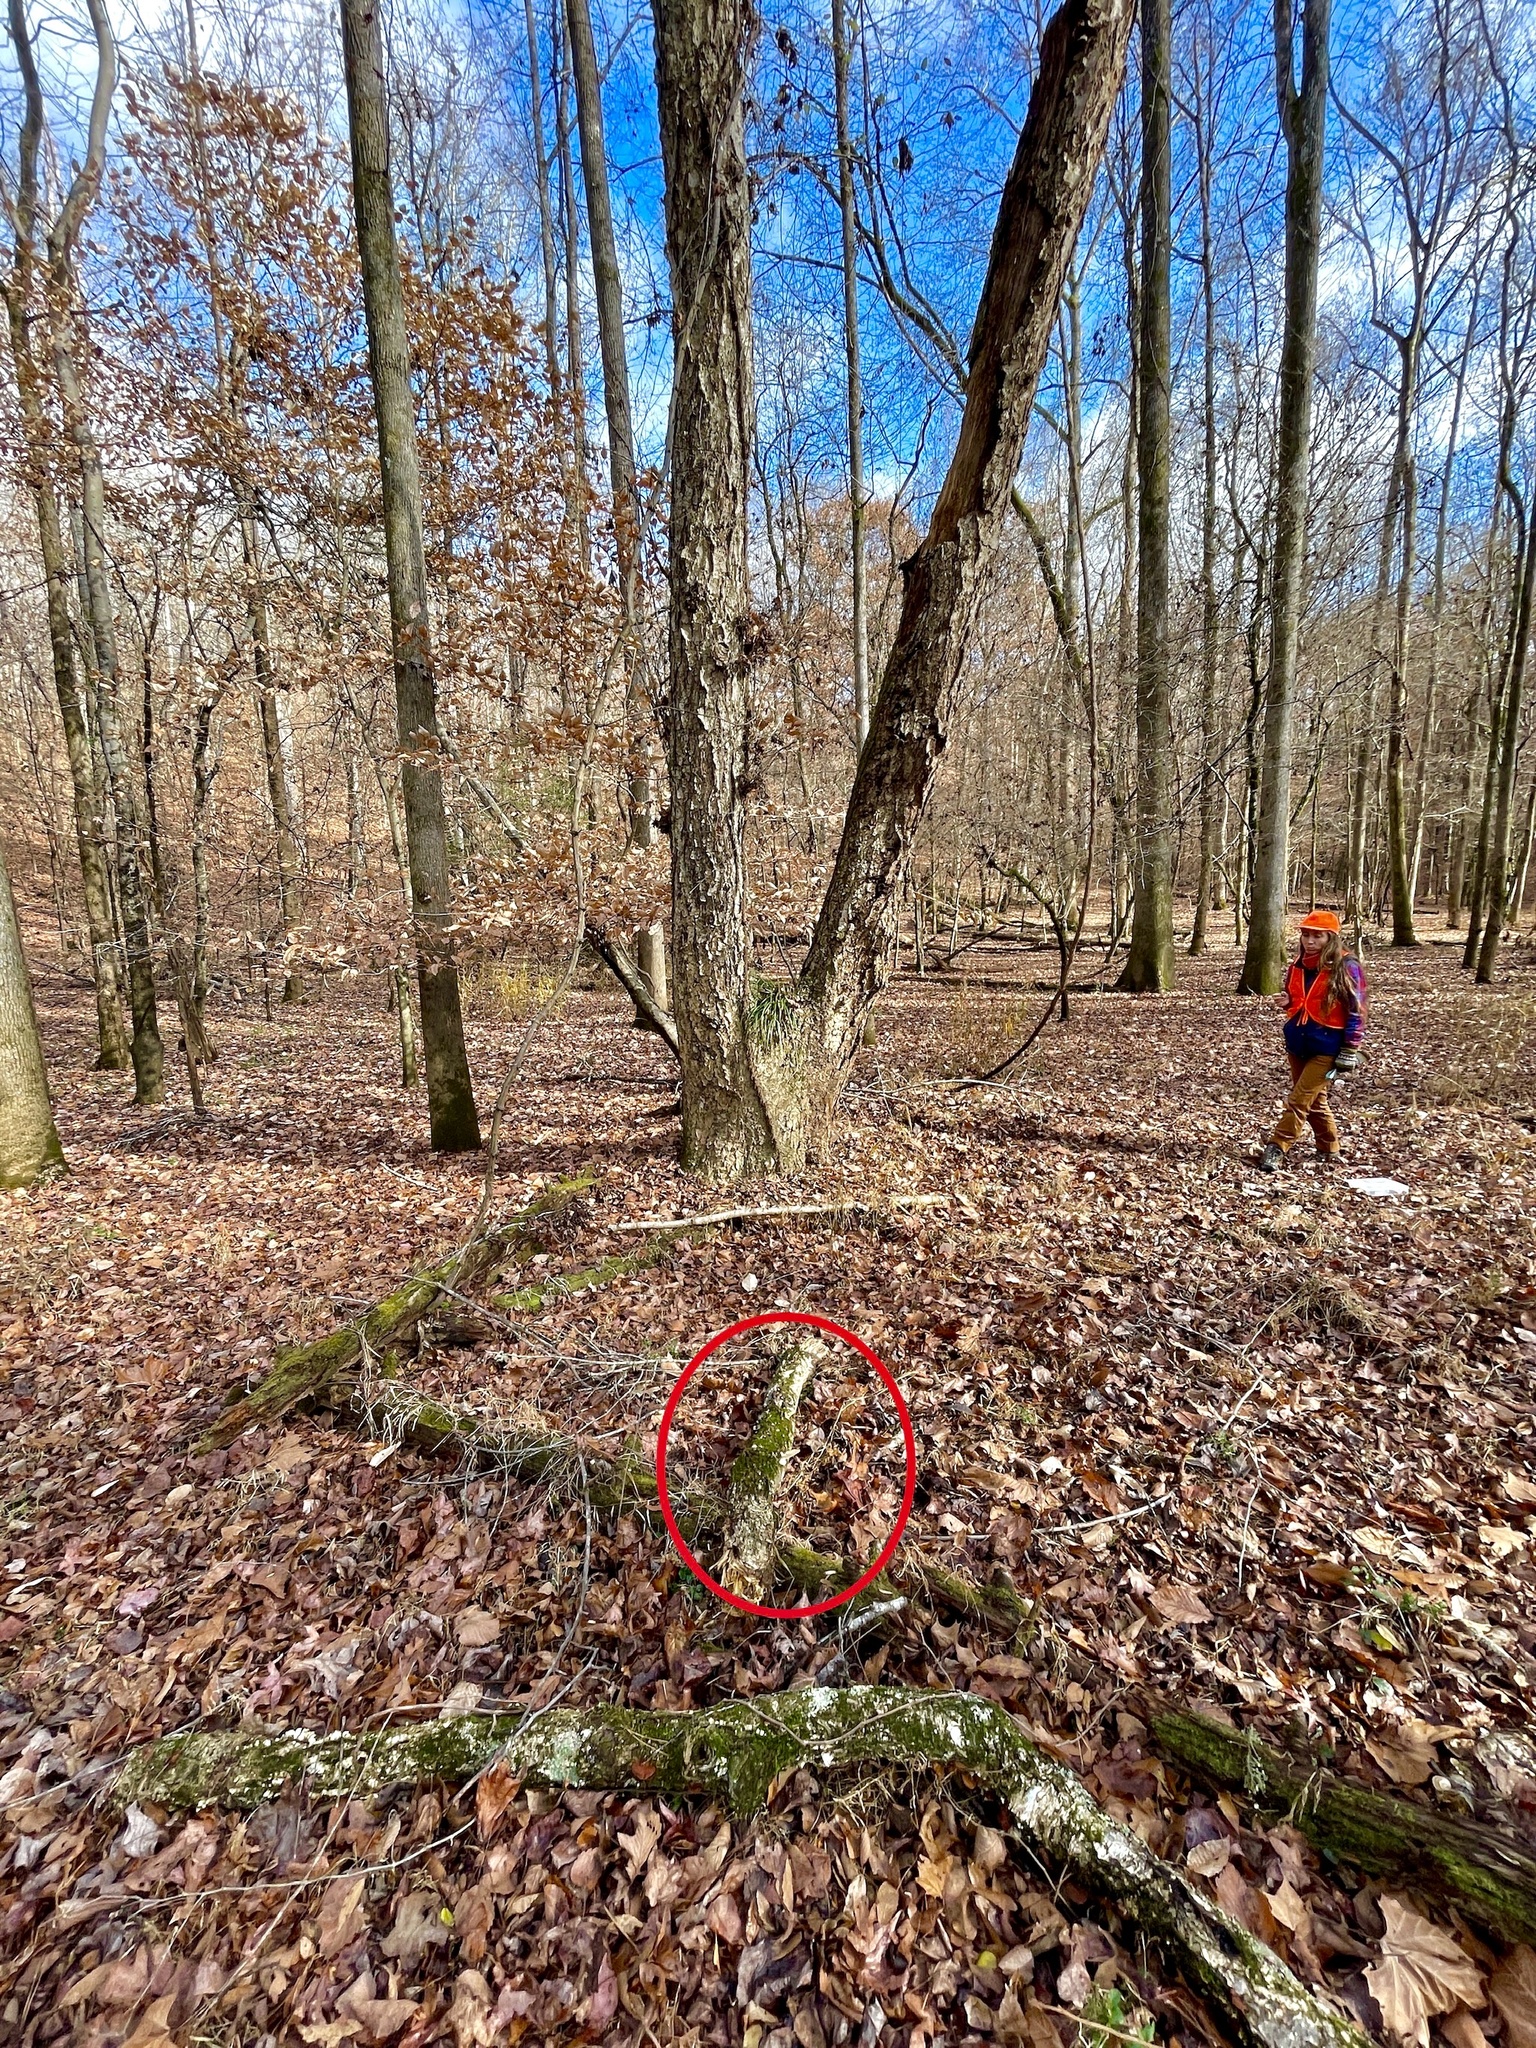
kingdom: Fungi
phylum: Basidiomycota
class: Agaricomycetes
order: Polyporales
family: Polyporaceae
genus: Trametes
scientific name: Trametes lactinea
